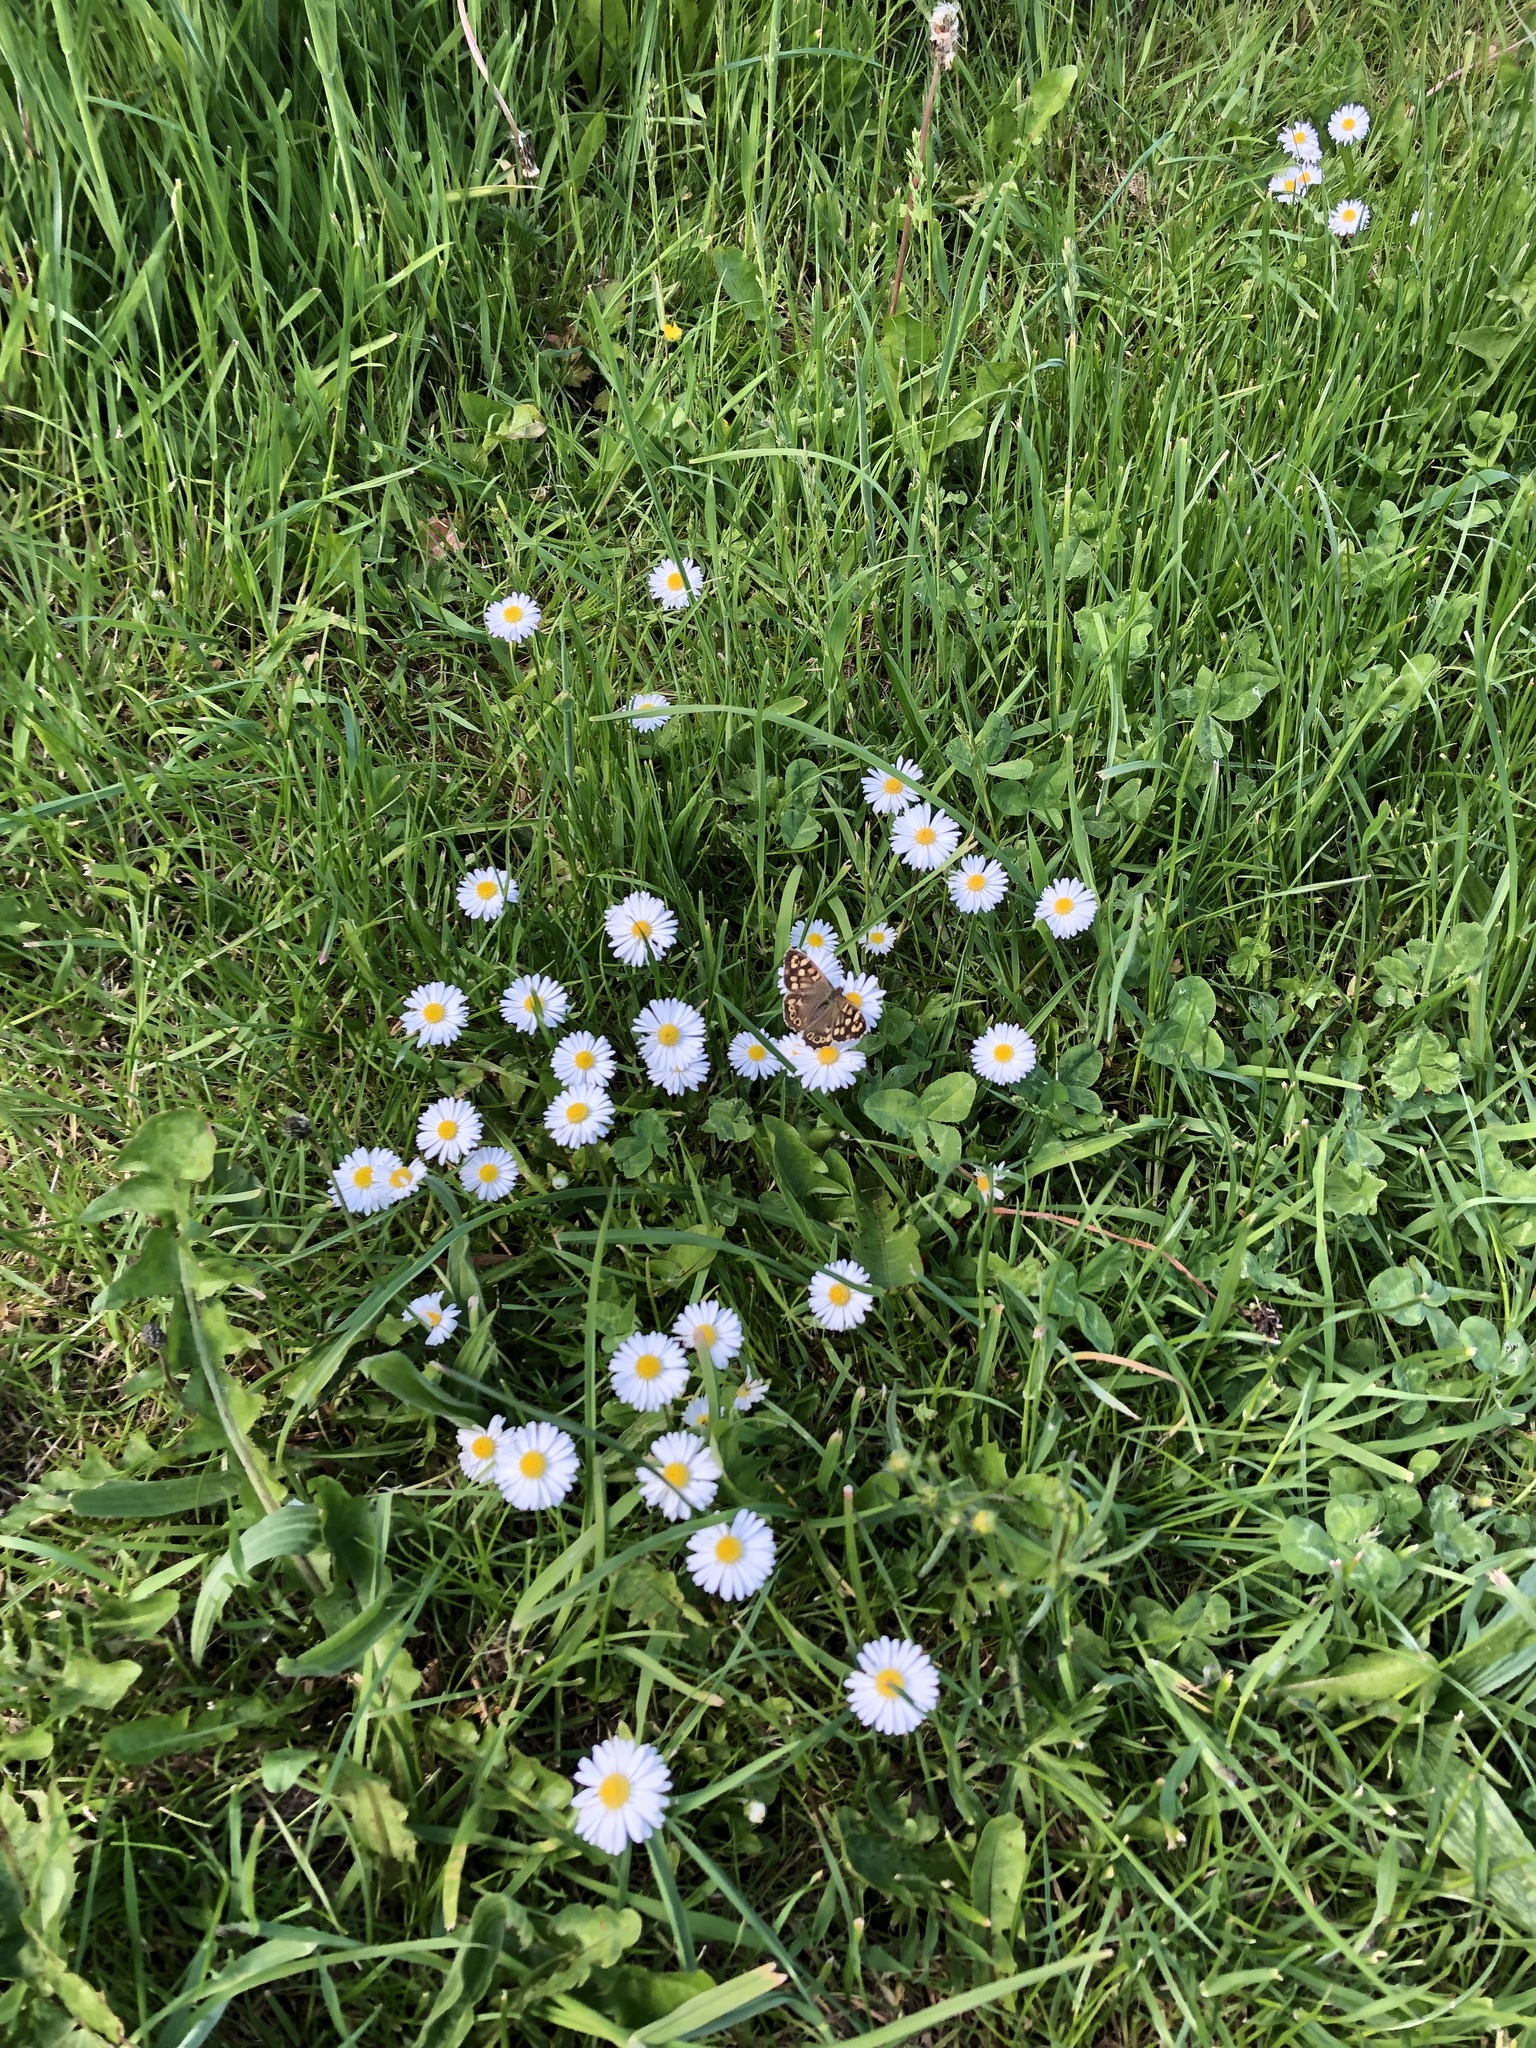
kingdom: Animalia
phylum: Arthropoda
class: Insecta
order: Lepidoptera
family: Nymphalidae
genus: Pararge
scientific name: Pararge aegeria
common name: Speckled wood
